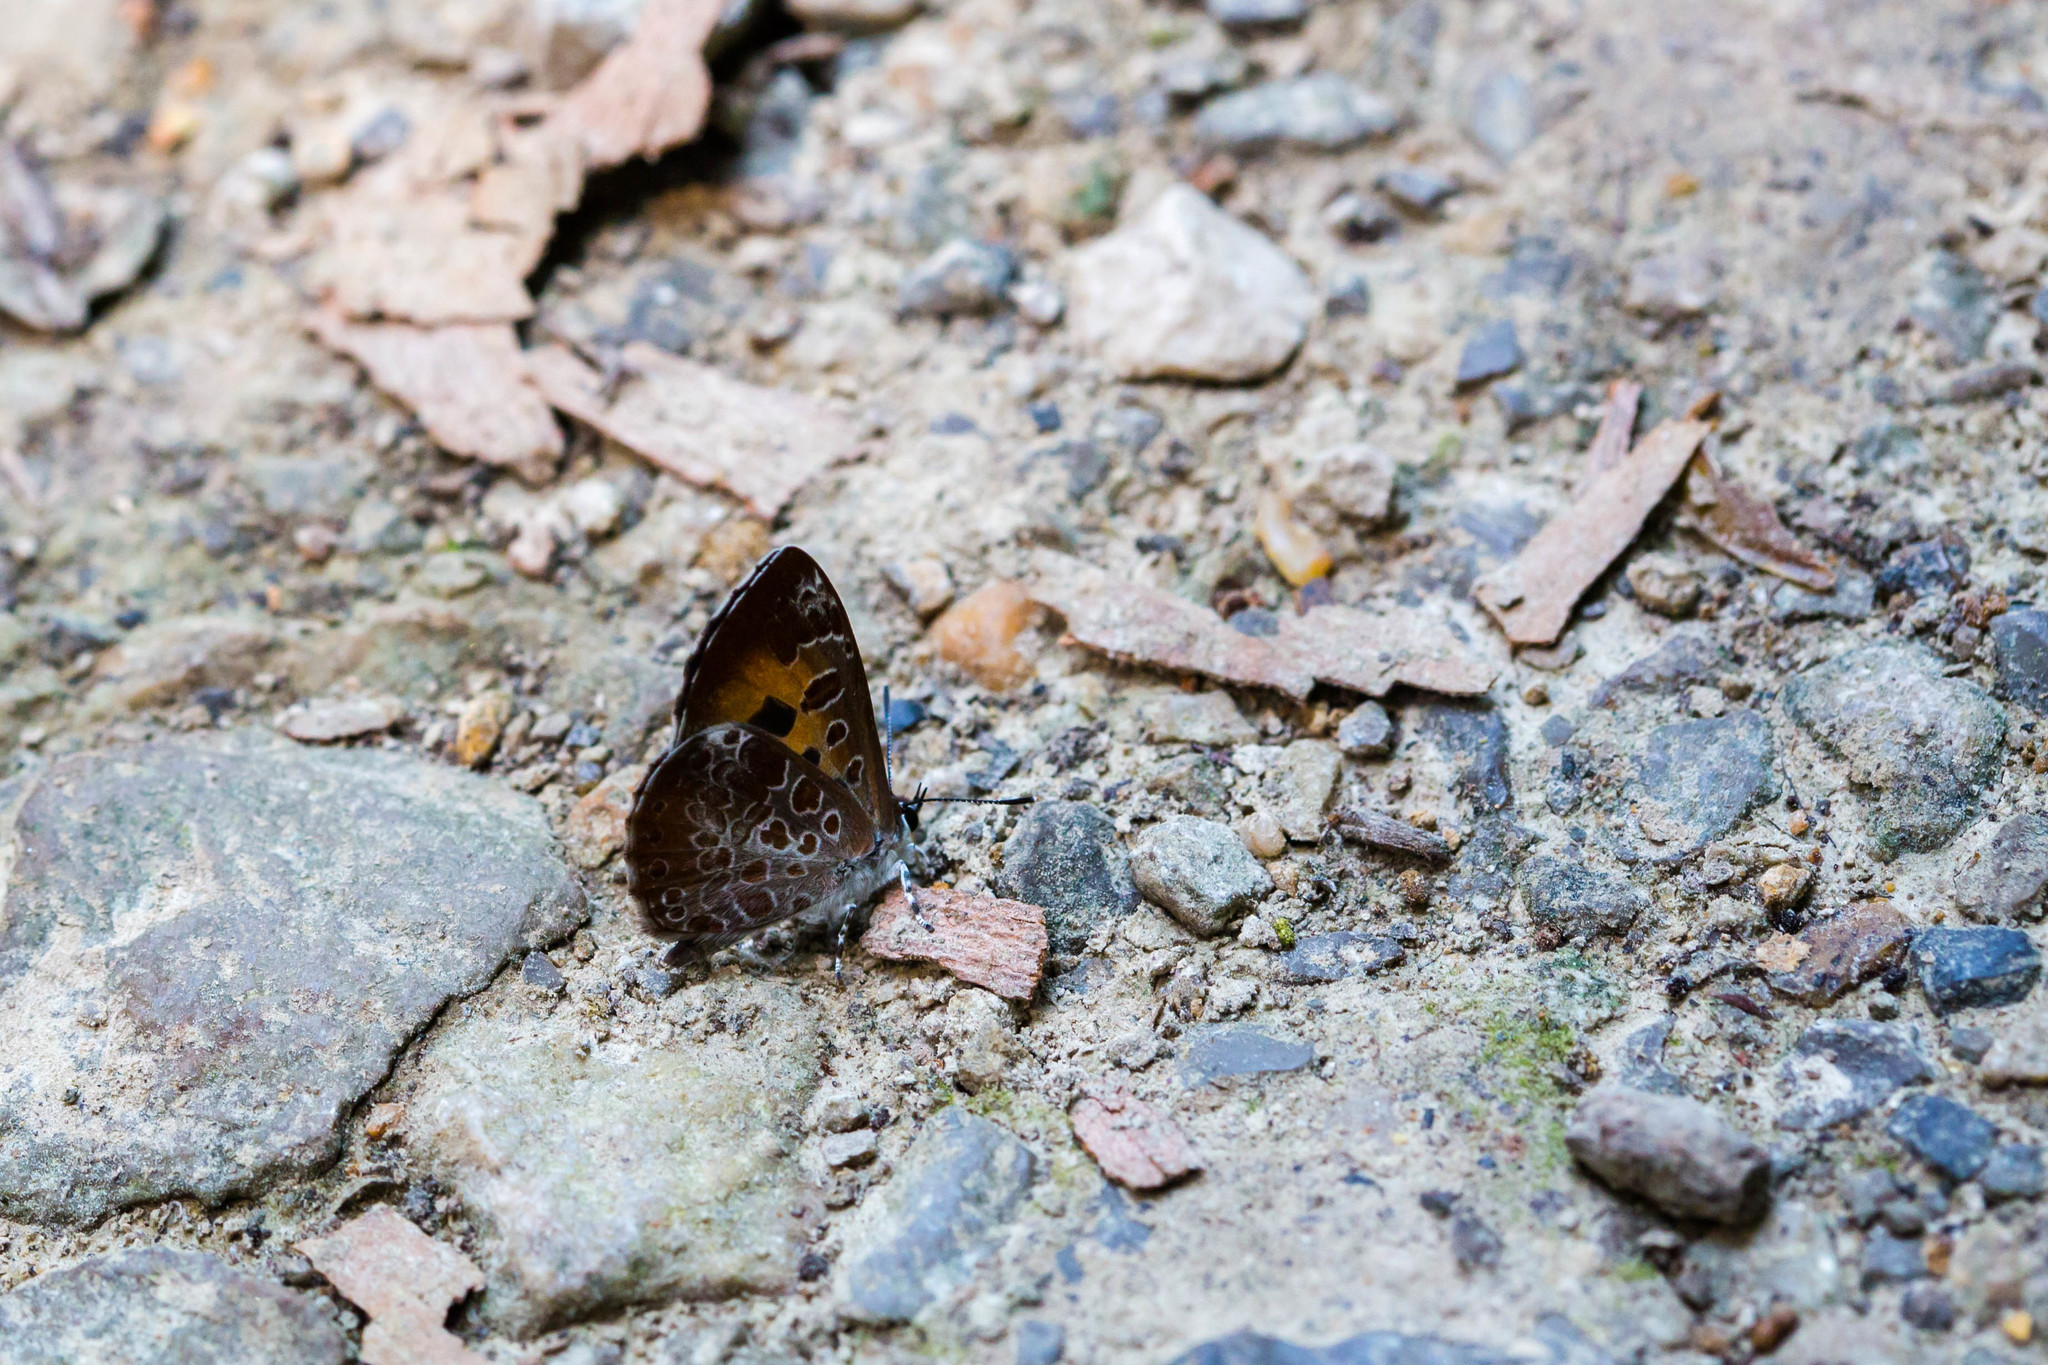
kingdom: Animalia
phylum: Arthropoda
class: Insecta
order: Lepidoptera
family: Lycaenidae
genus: Feniseca
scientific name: Feniseca tarquinius
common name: Harvester
